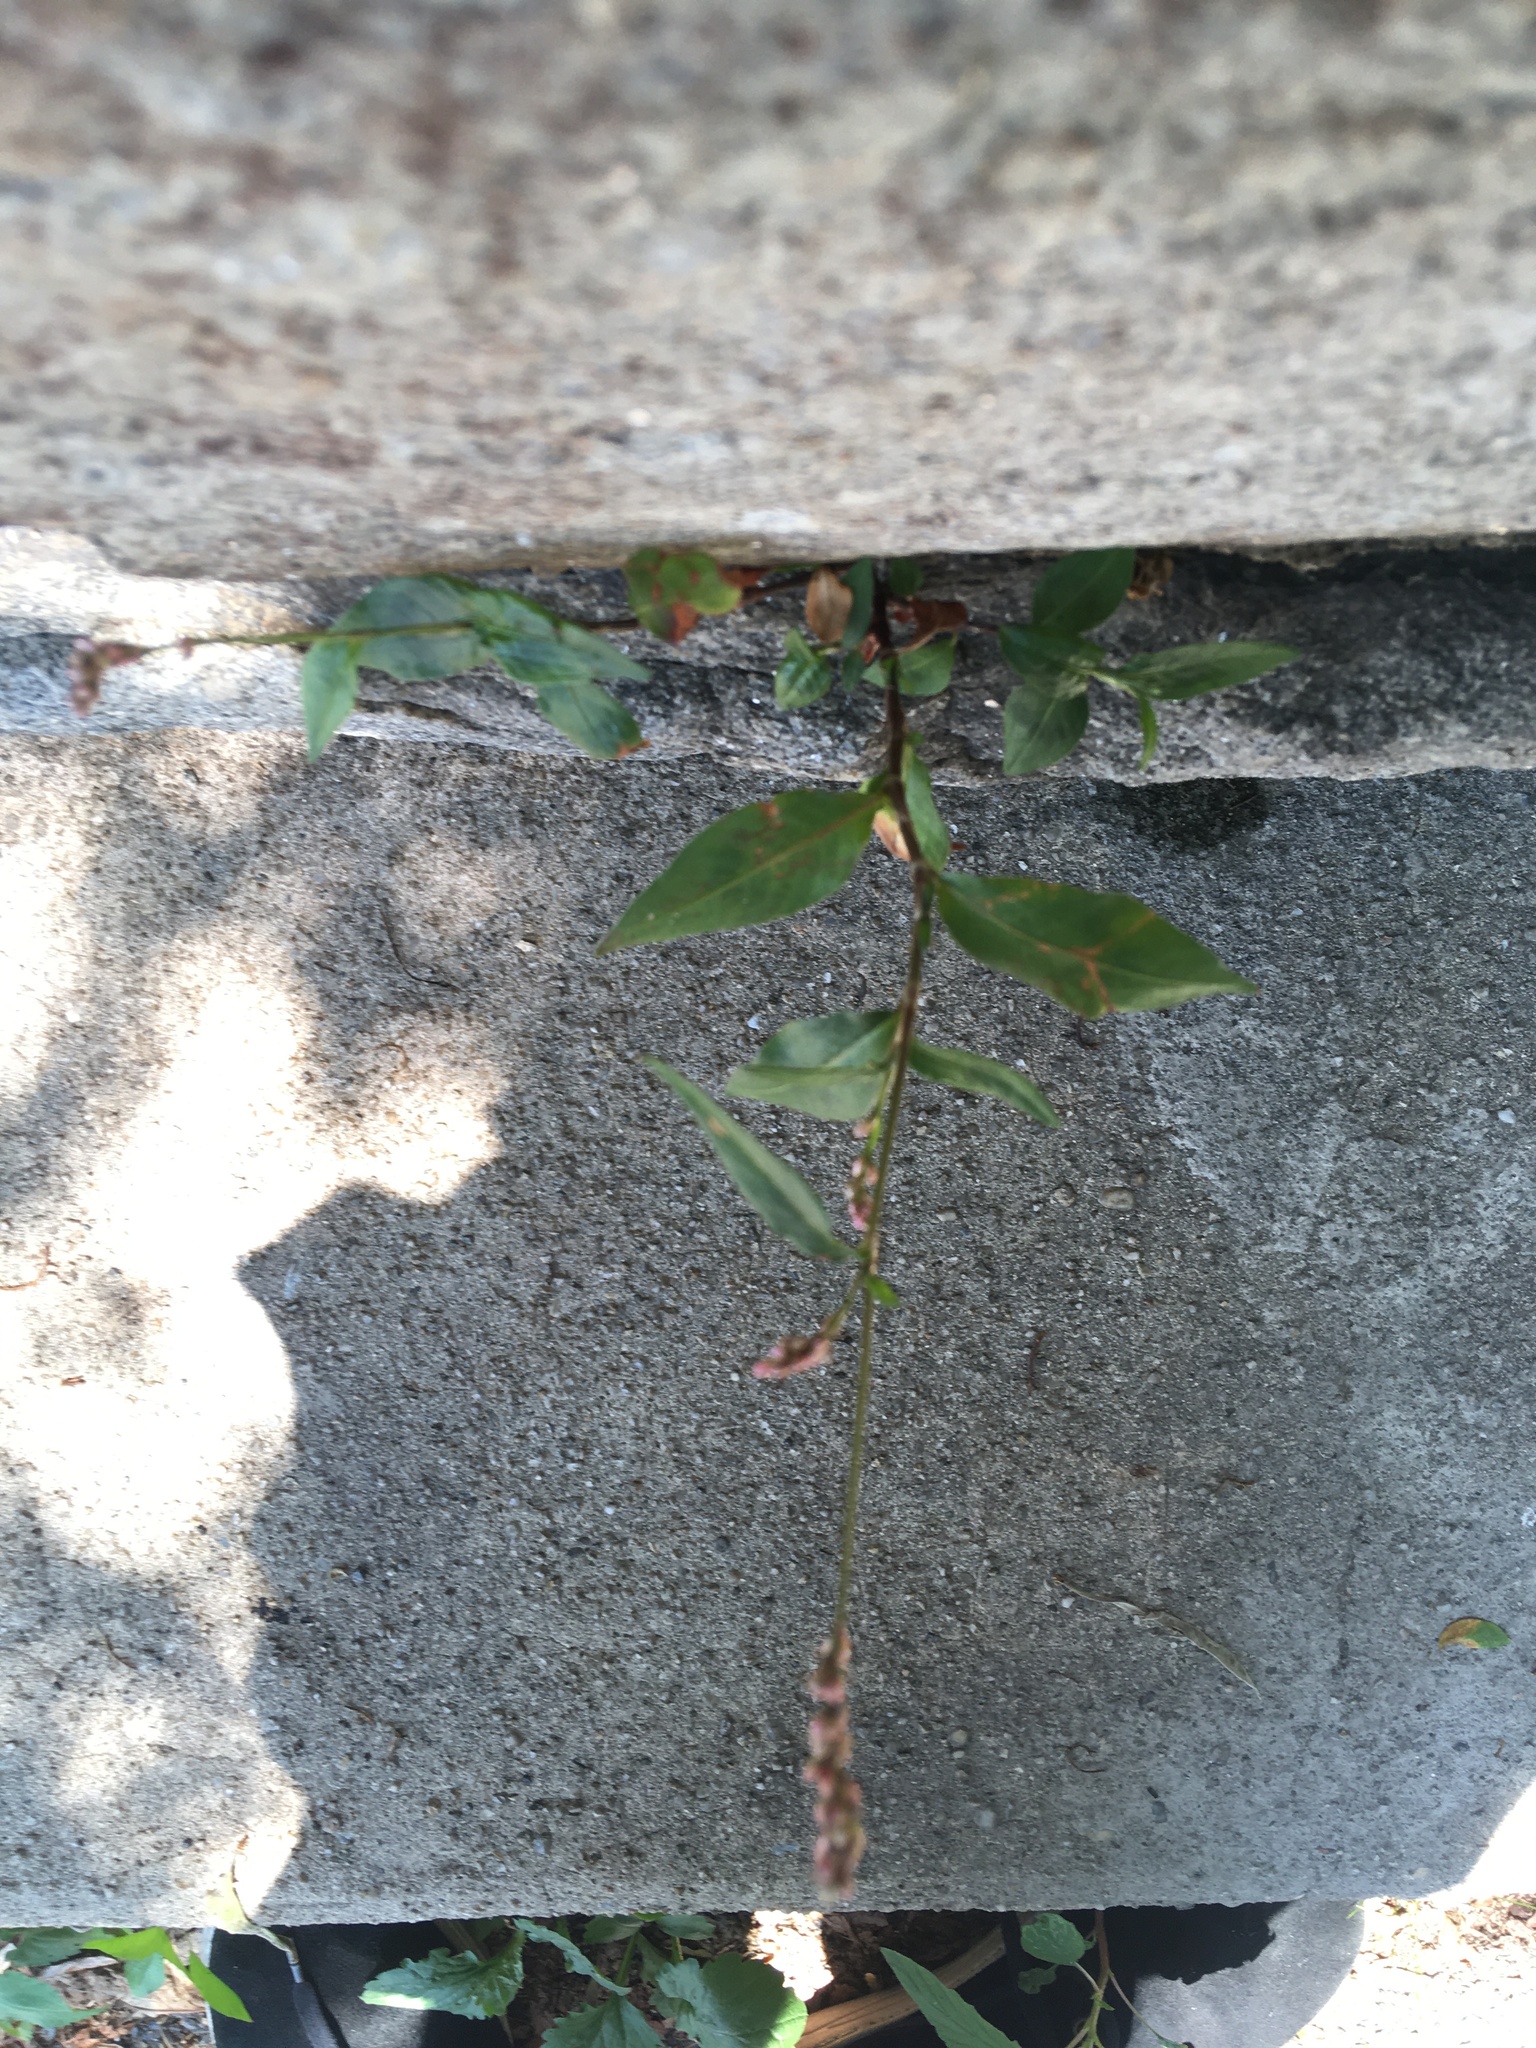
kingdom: Plantae
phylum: Tracheophyta
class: Magnoliopsida
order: Caryophyllales
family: Polygonaceae
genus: Persicaria
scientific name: Persicaria longiseta
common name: Bristly lady's-thumb
